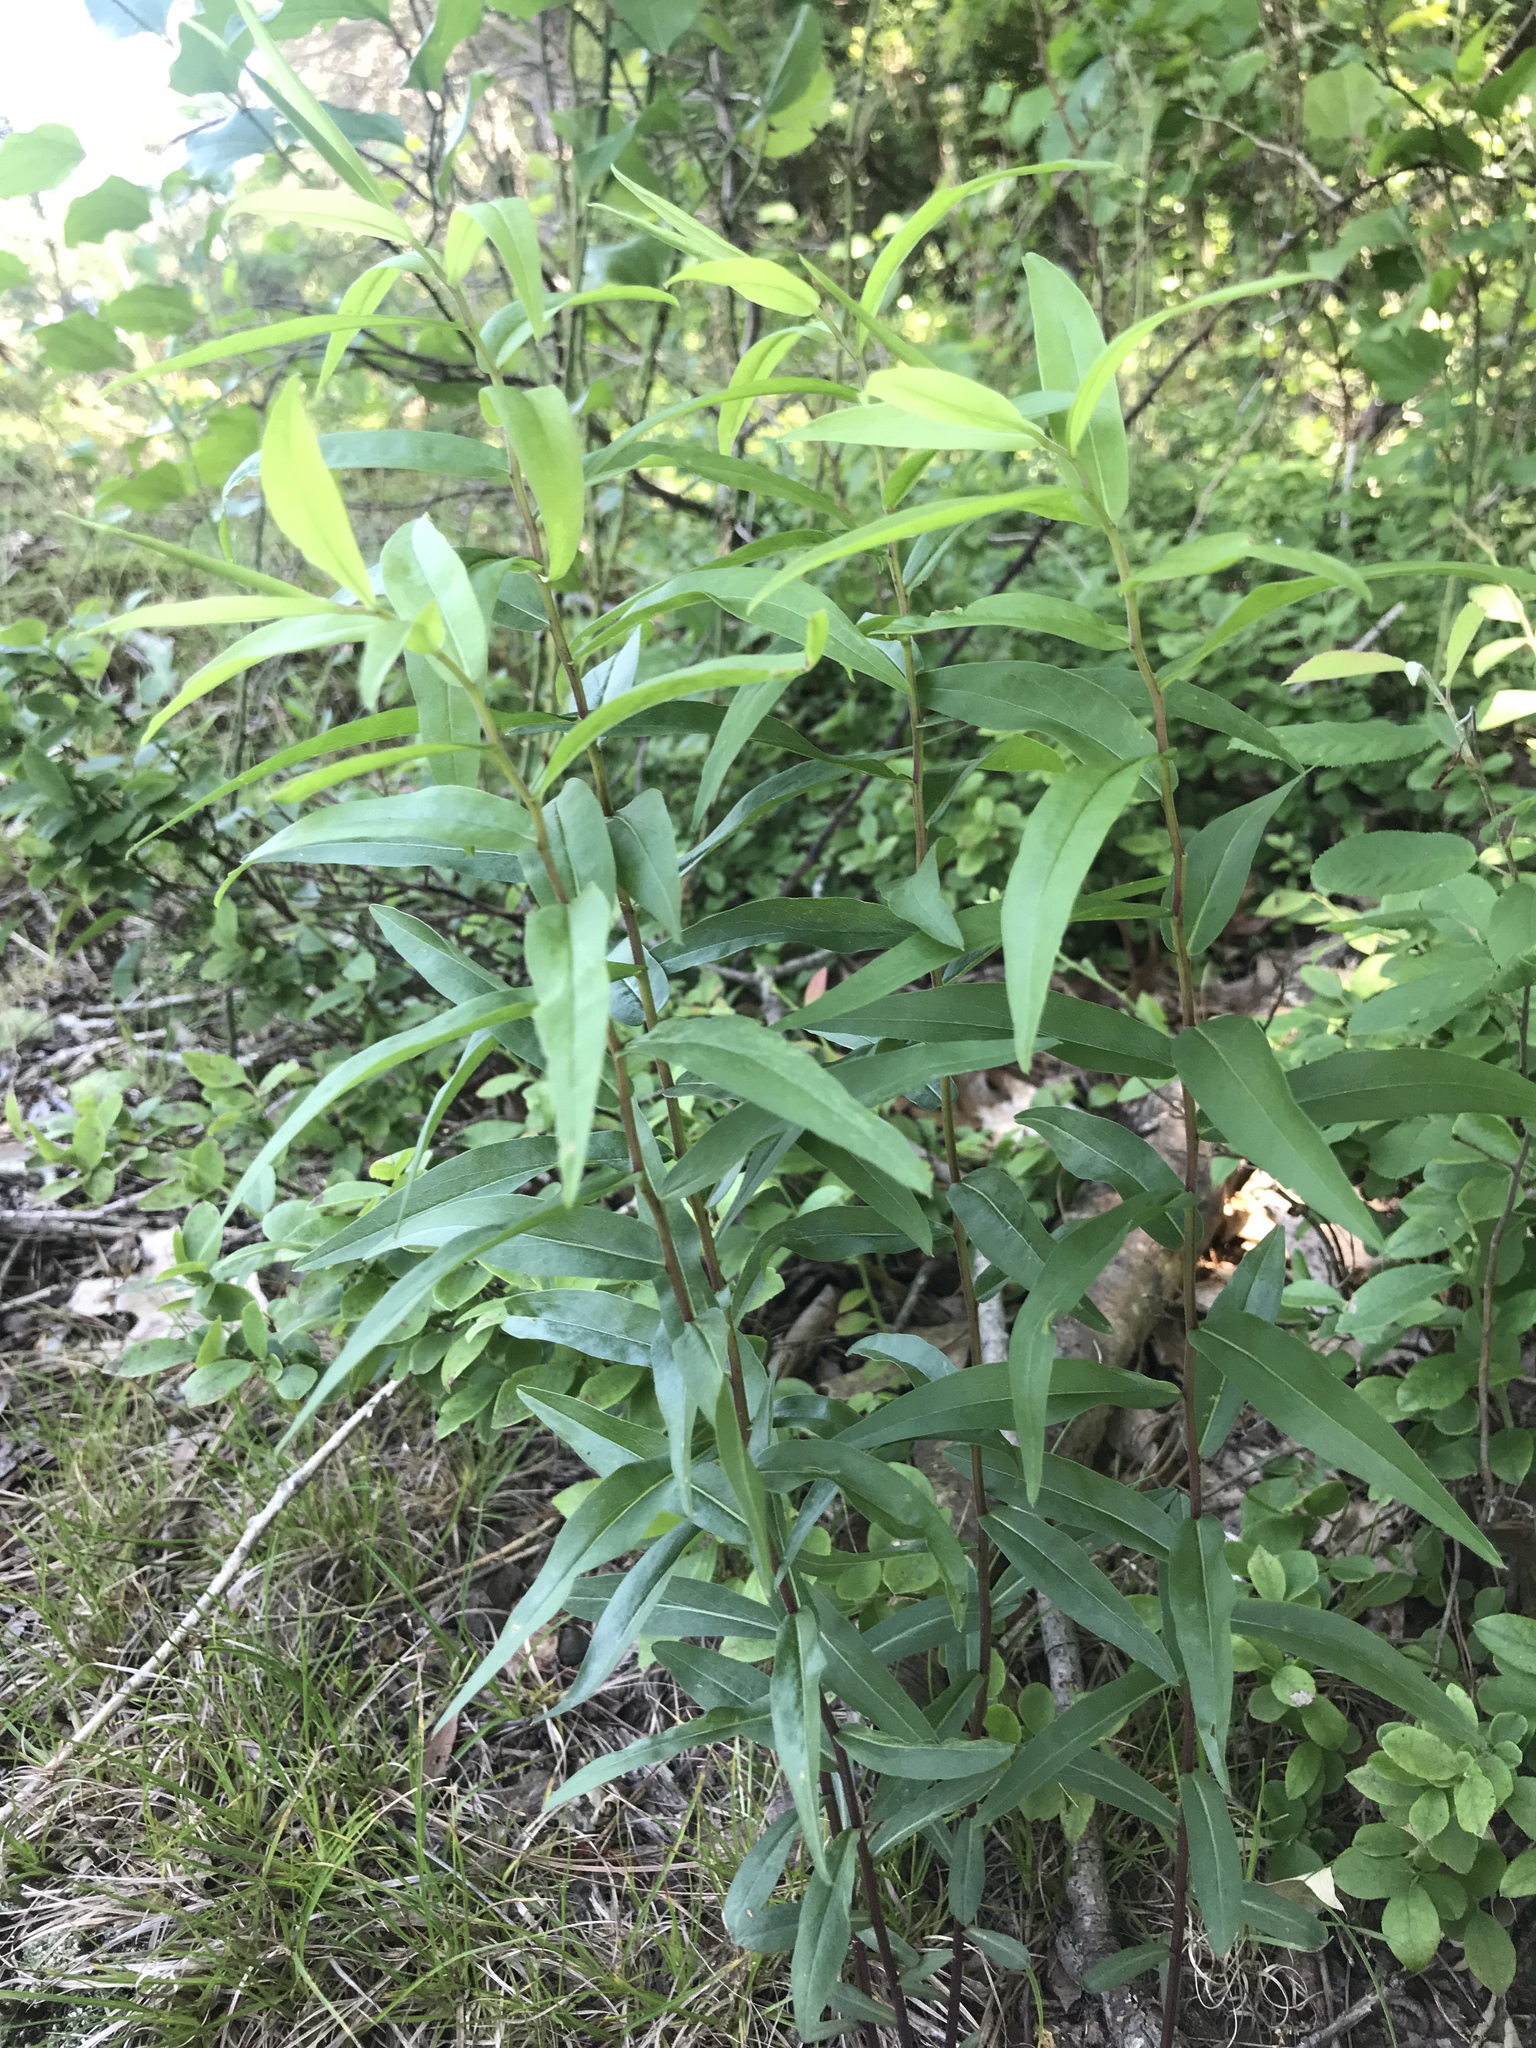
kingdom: Plantae
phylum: Tracheophyta
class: Magnoliopsida
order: Asterales
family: Asteraceae
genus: Solidago
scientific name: Solidago odora
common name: Anise-scented goldenrod
